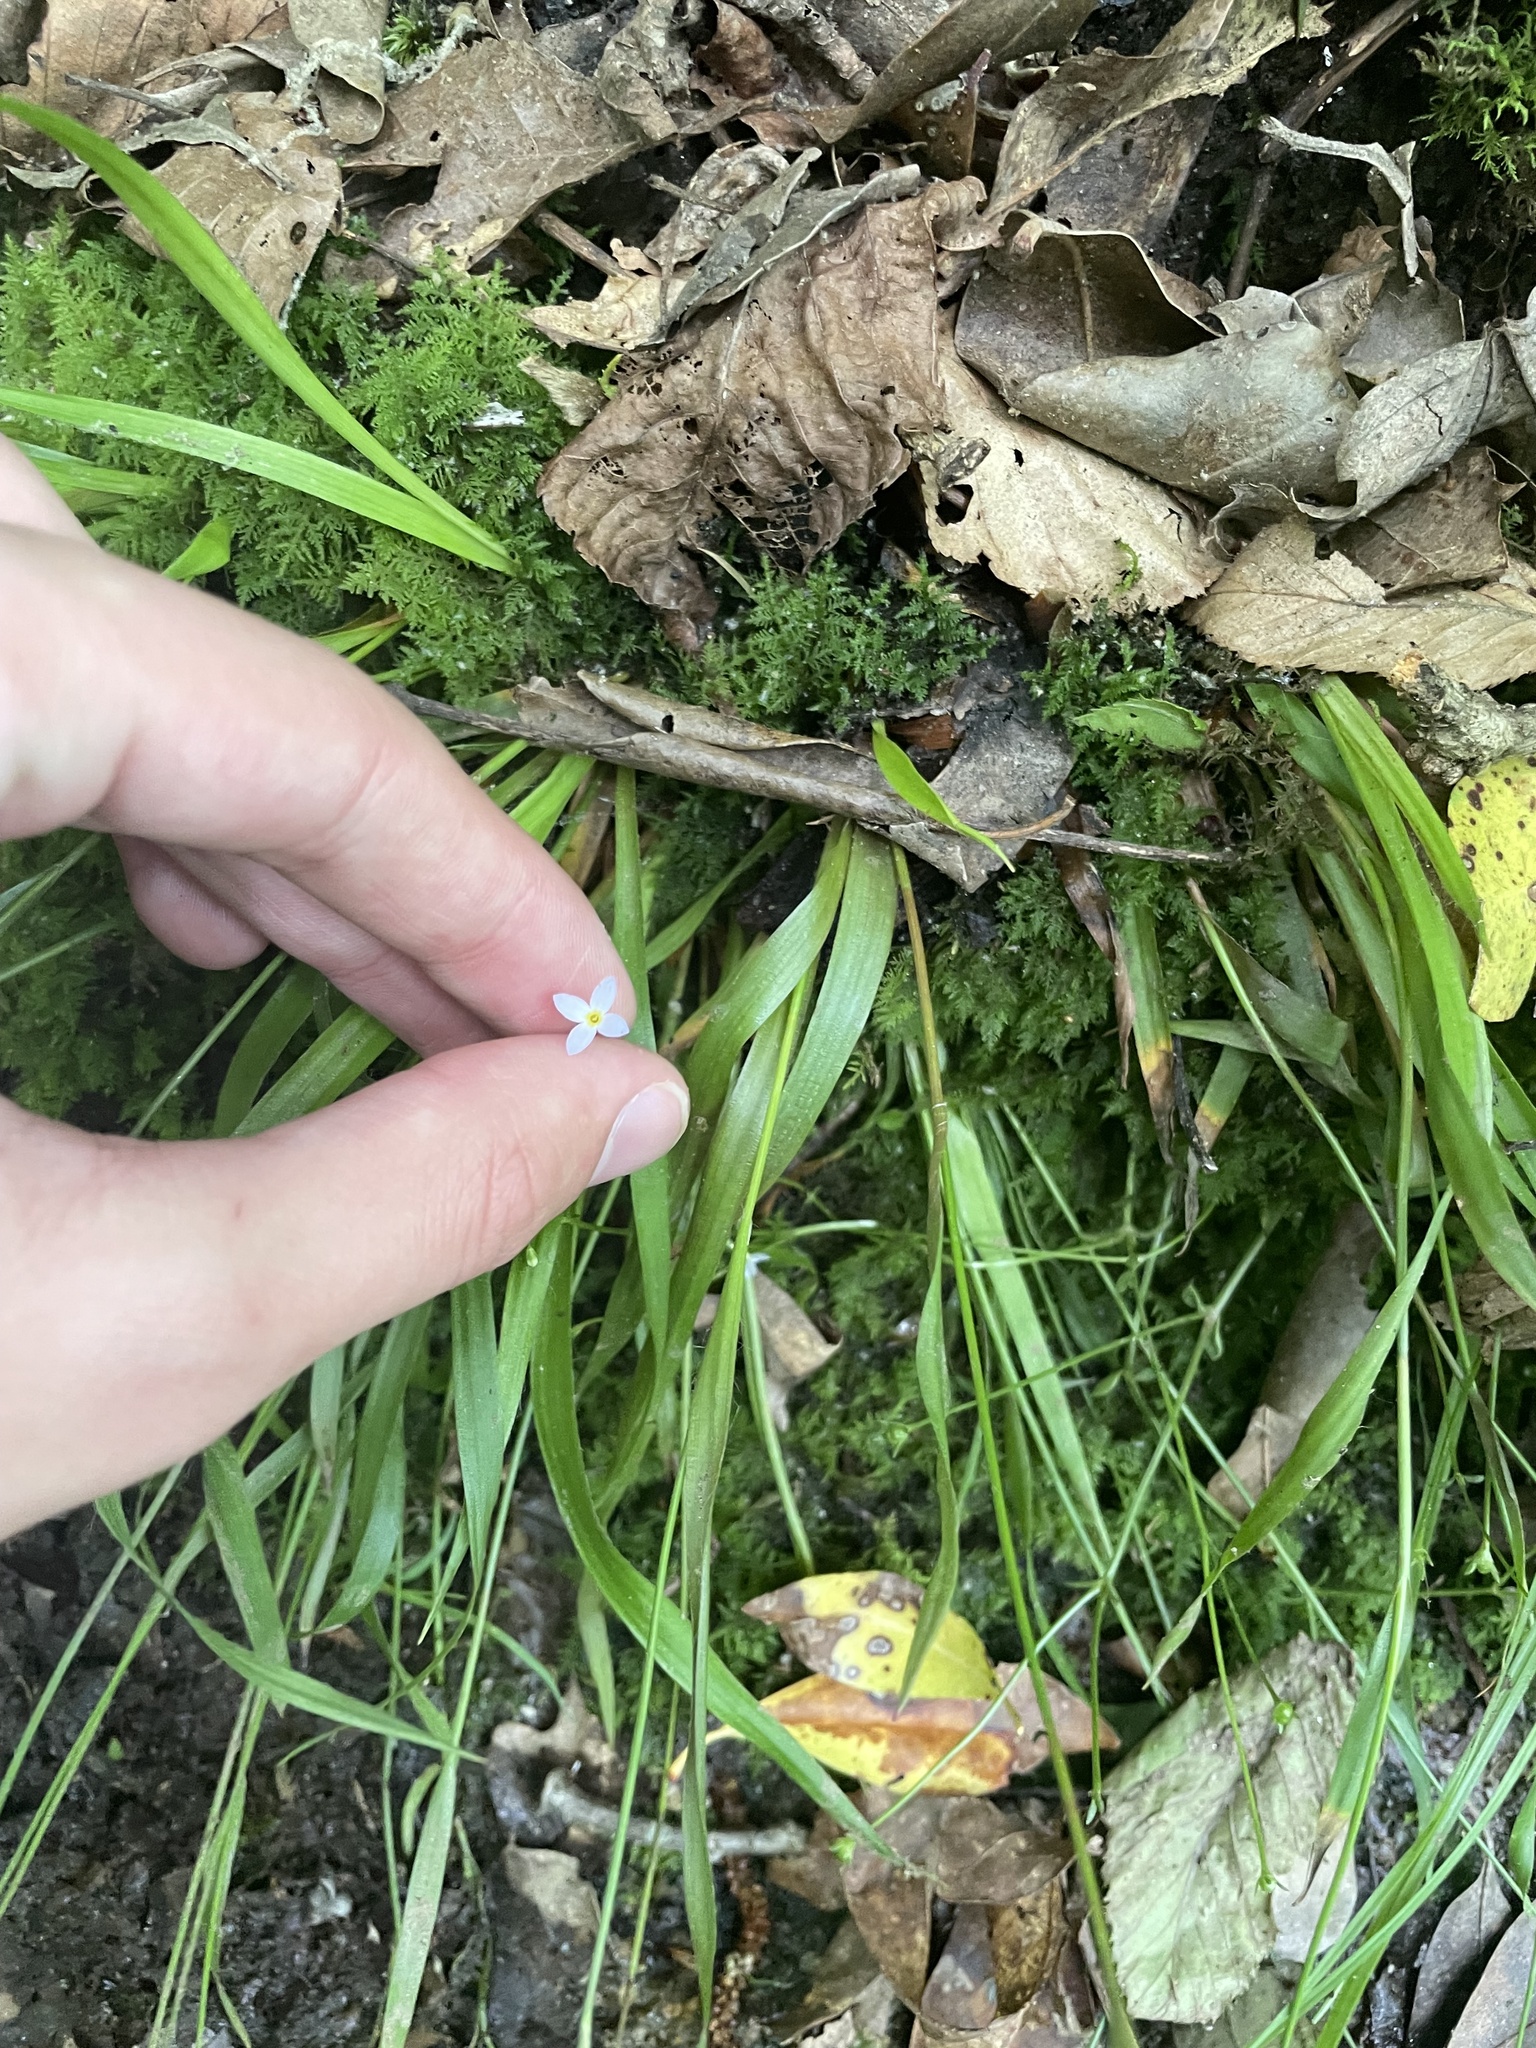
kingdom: Plantae
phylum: Tracheophyta
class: Magnoliopsida
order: Gentianales
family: Rubiaceae
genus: Houstonia
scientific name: Houstonia caerulea
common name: Bluets
